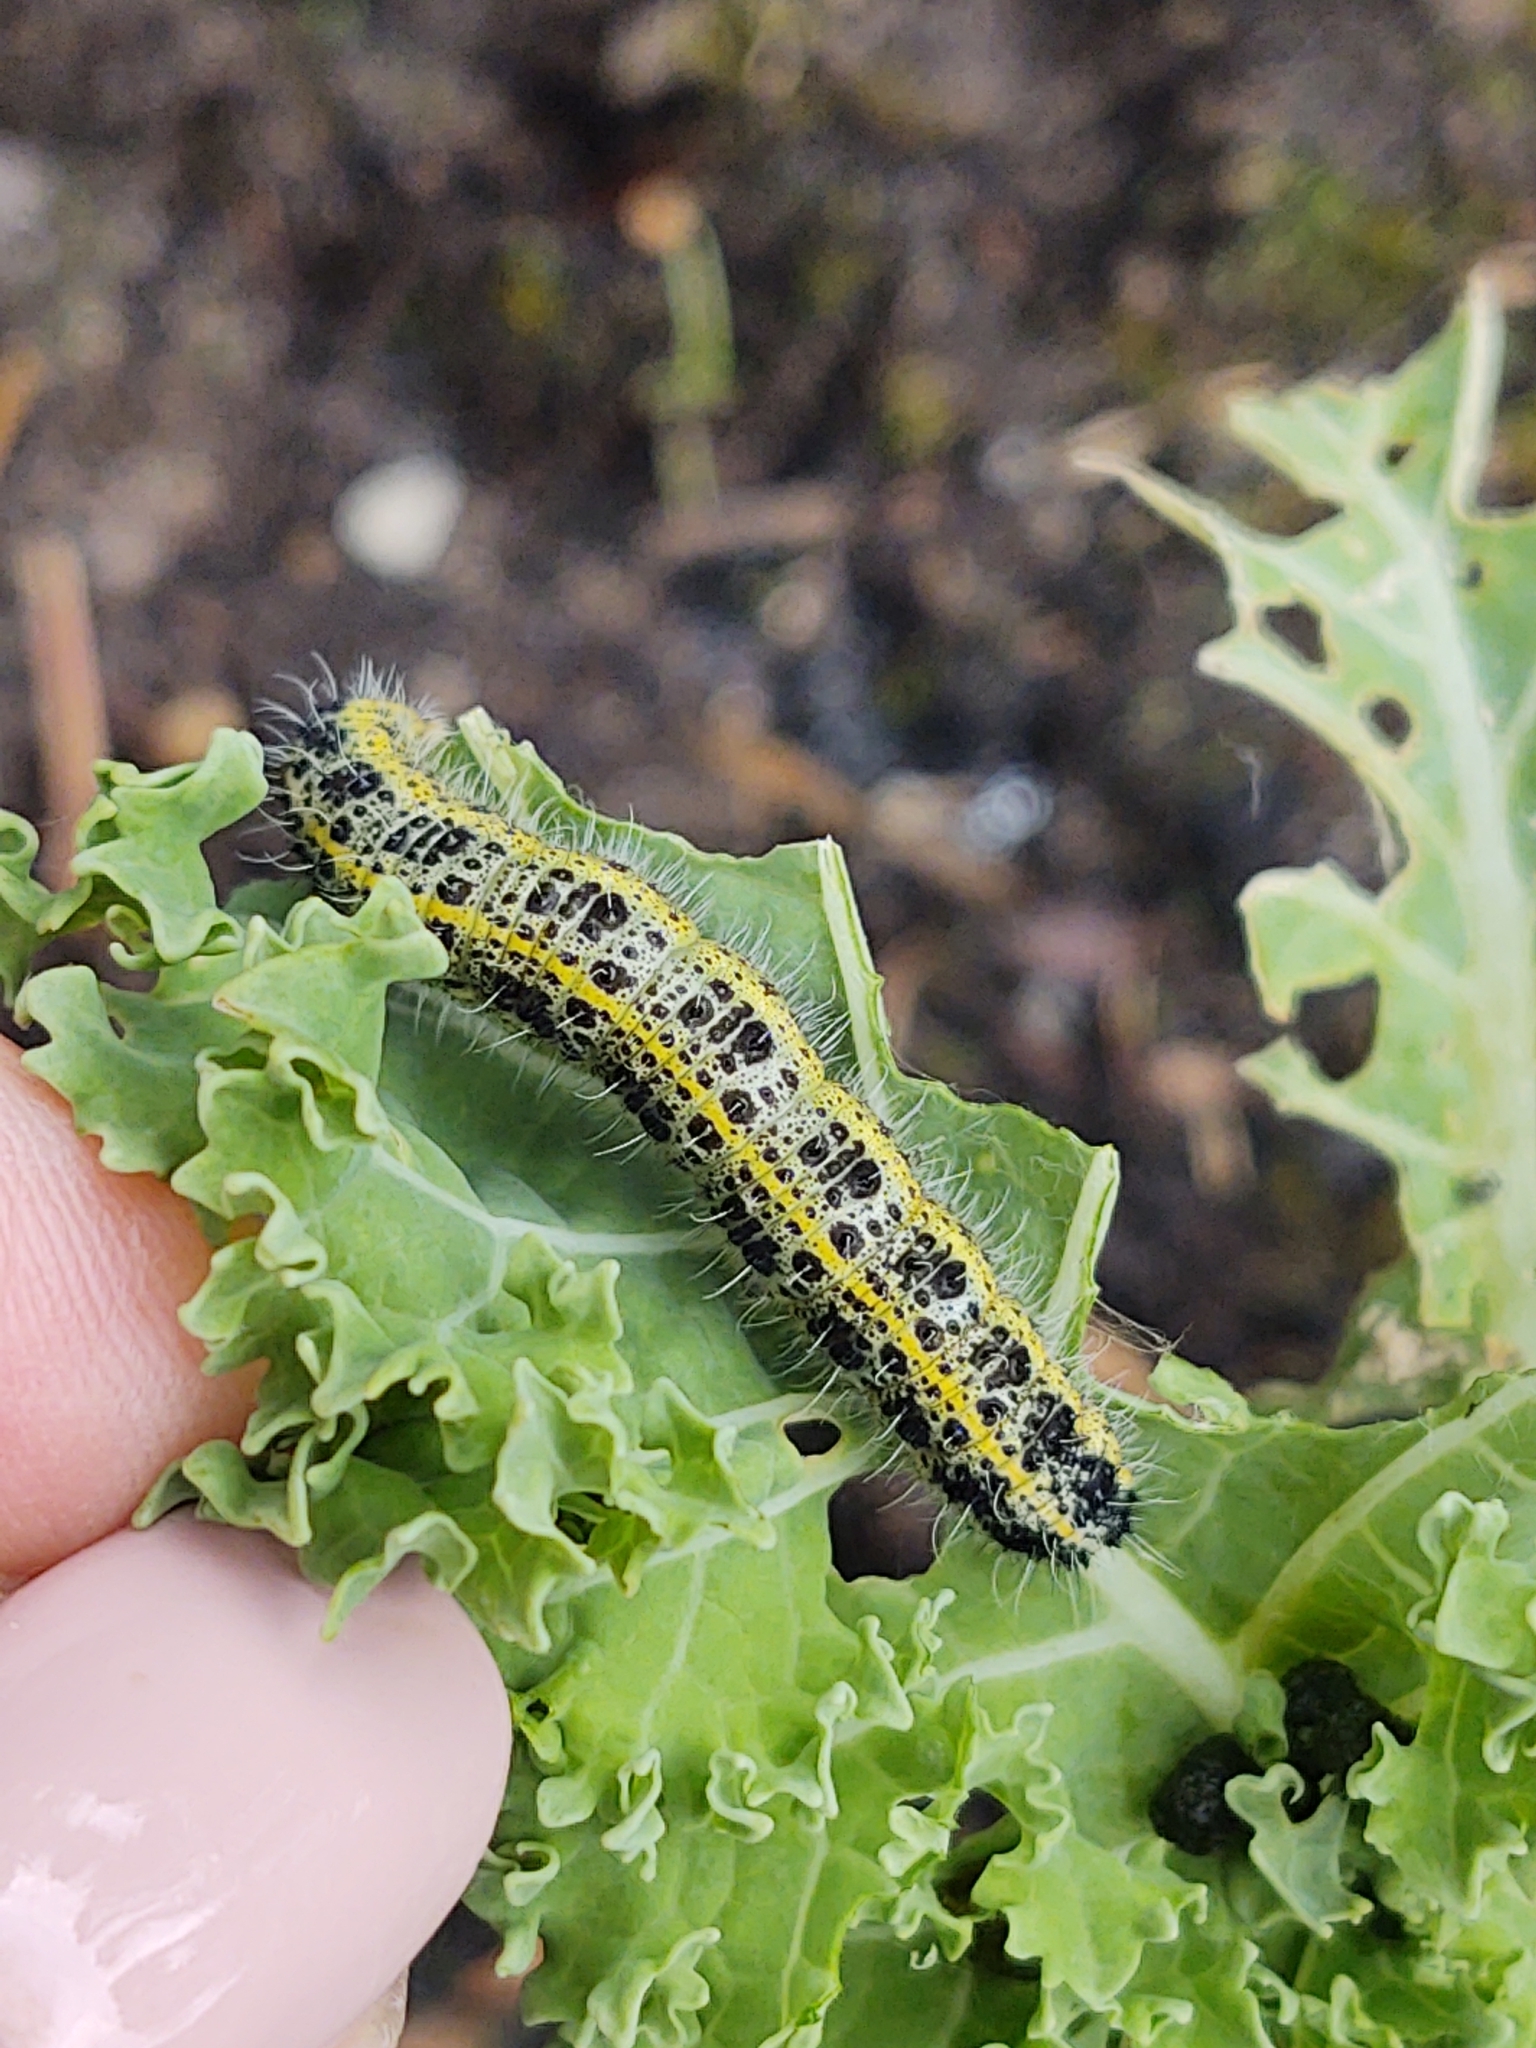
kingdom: Animalia
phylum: Arthropoda
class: Insecta
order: Lepidoptera
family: Pieridae
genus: Pieris
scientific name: Pieris brassicae
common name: Large white
